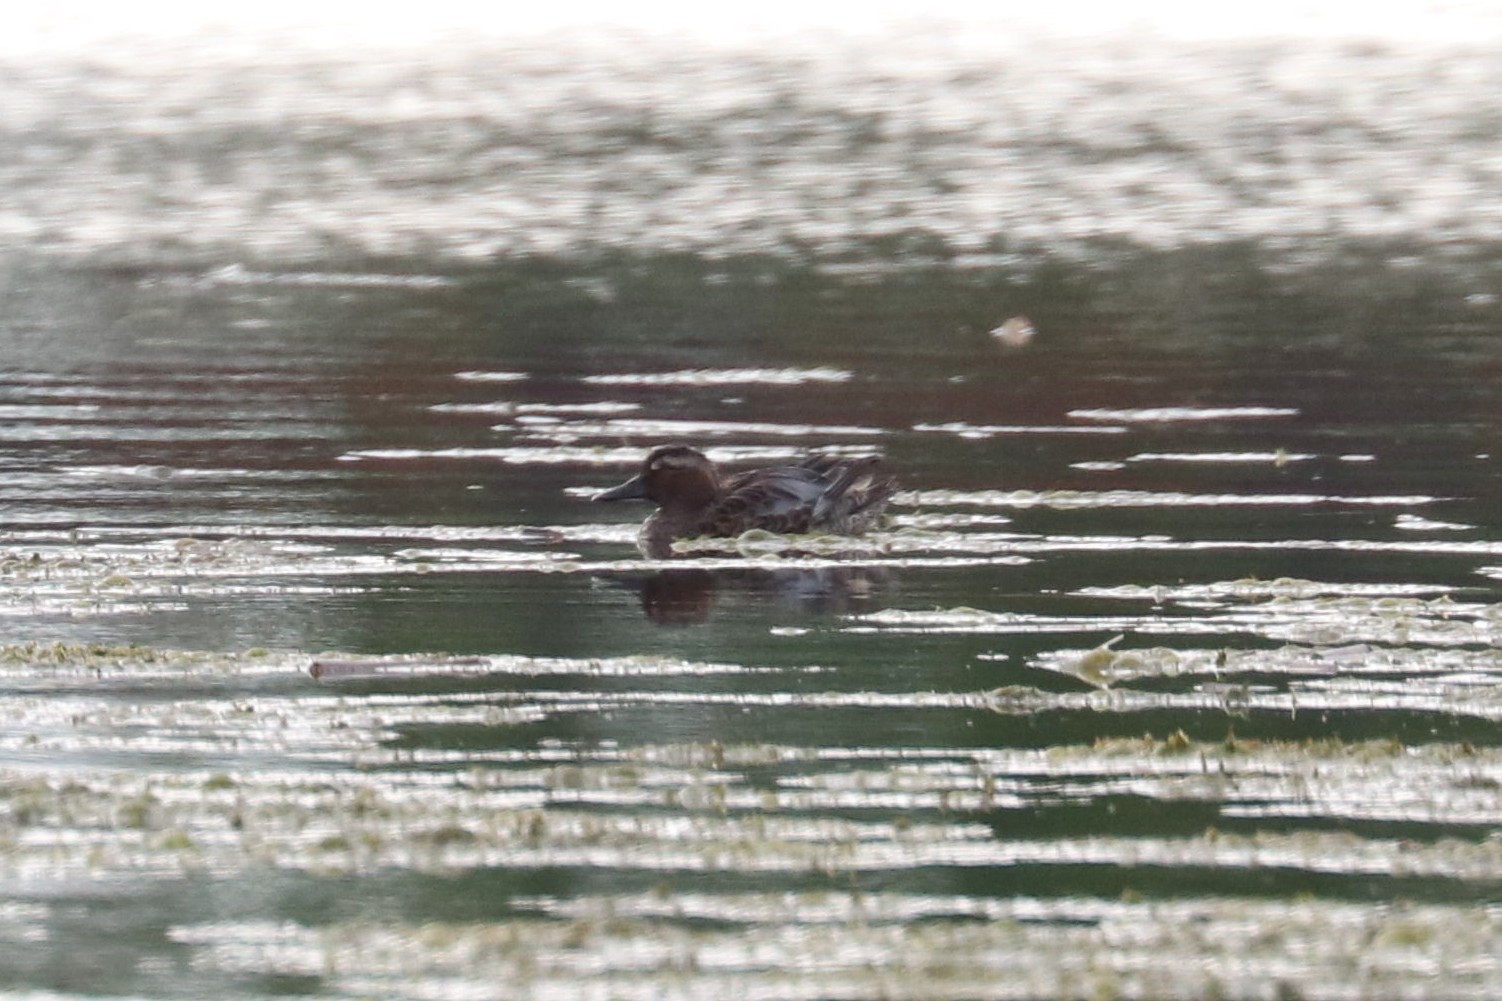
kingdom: Animalia
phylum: Chordata
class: Aves
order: Anseriformes
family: Anatidae
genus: Spatula
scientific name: Spatula querquedula
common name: Garganey
